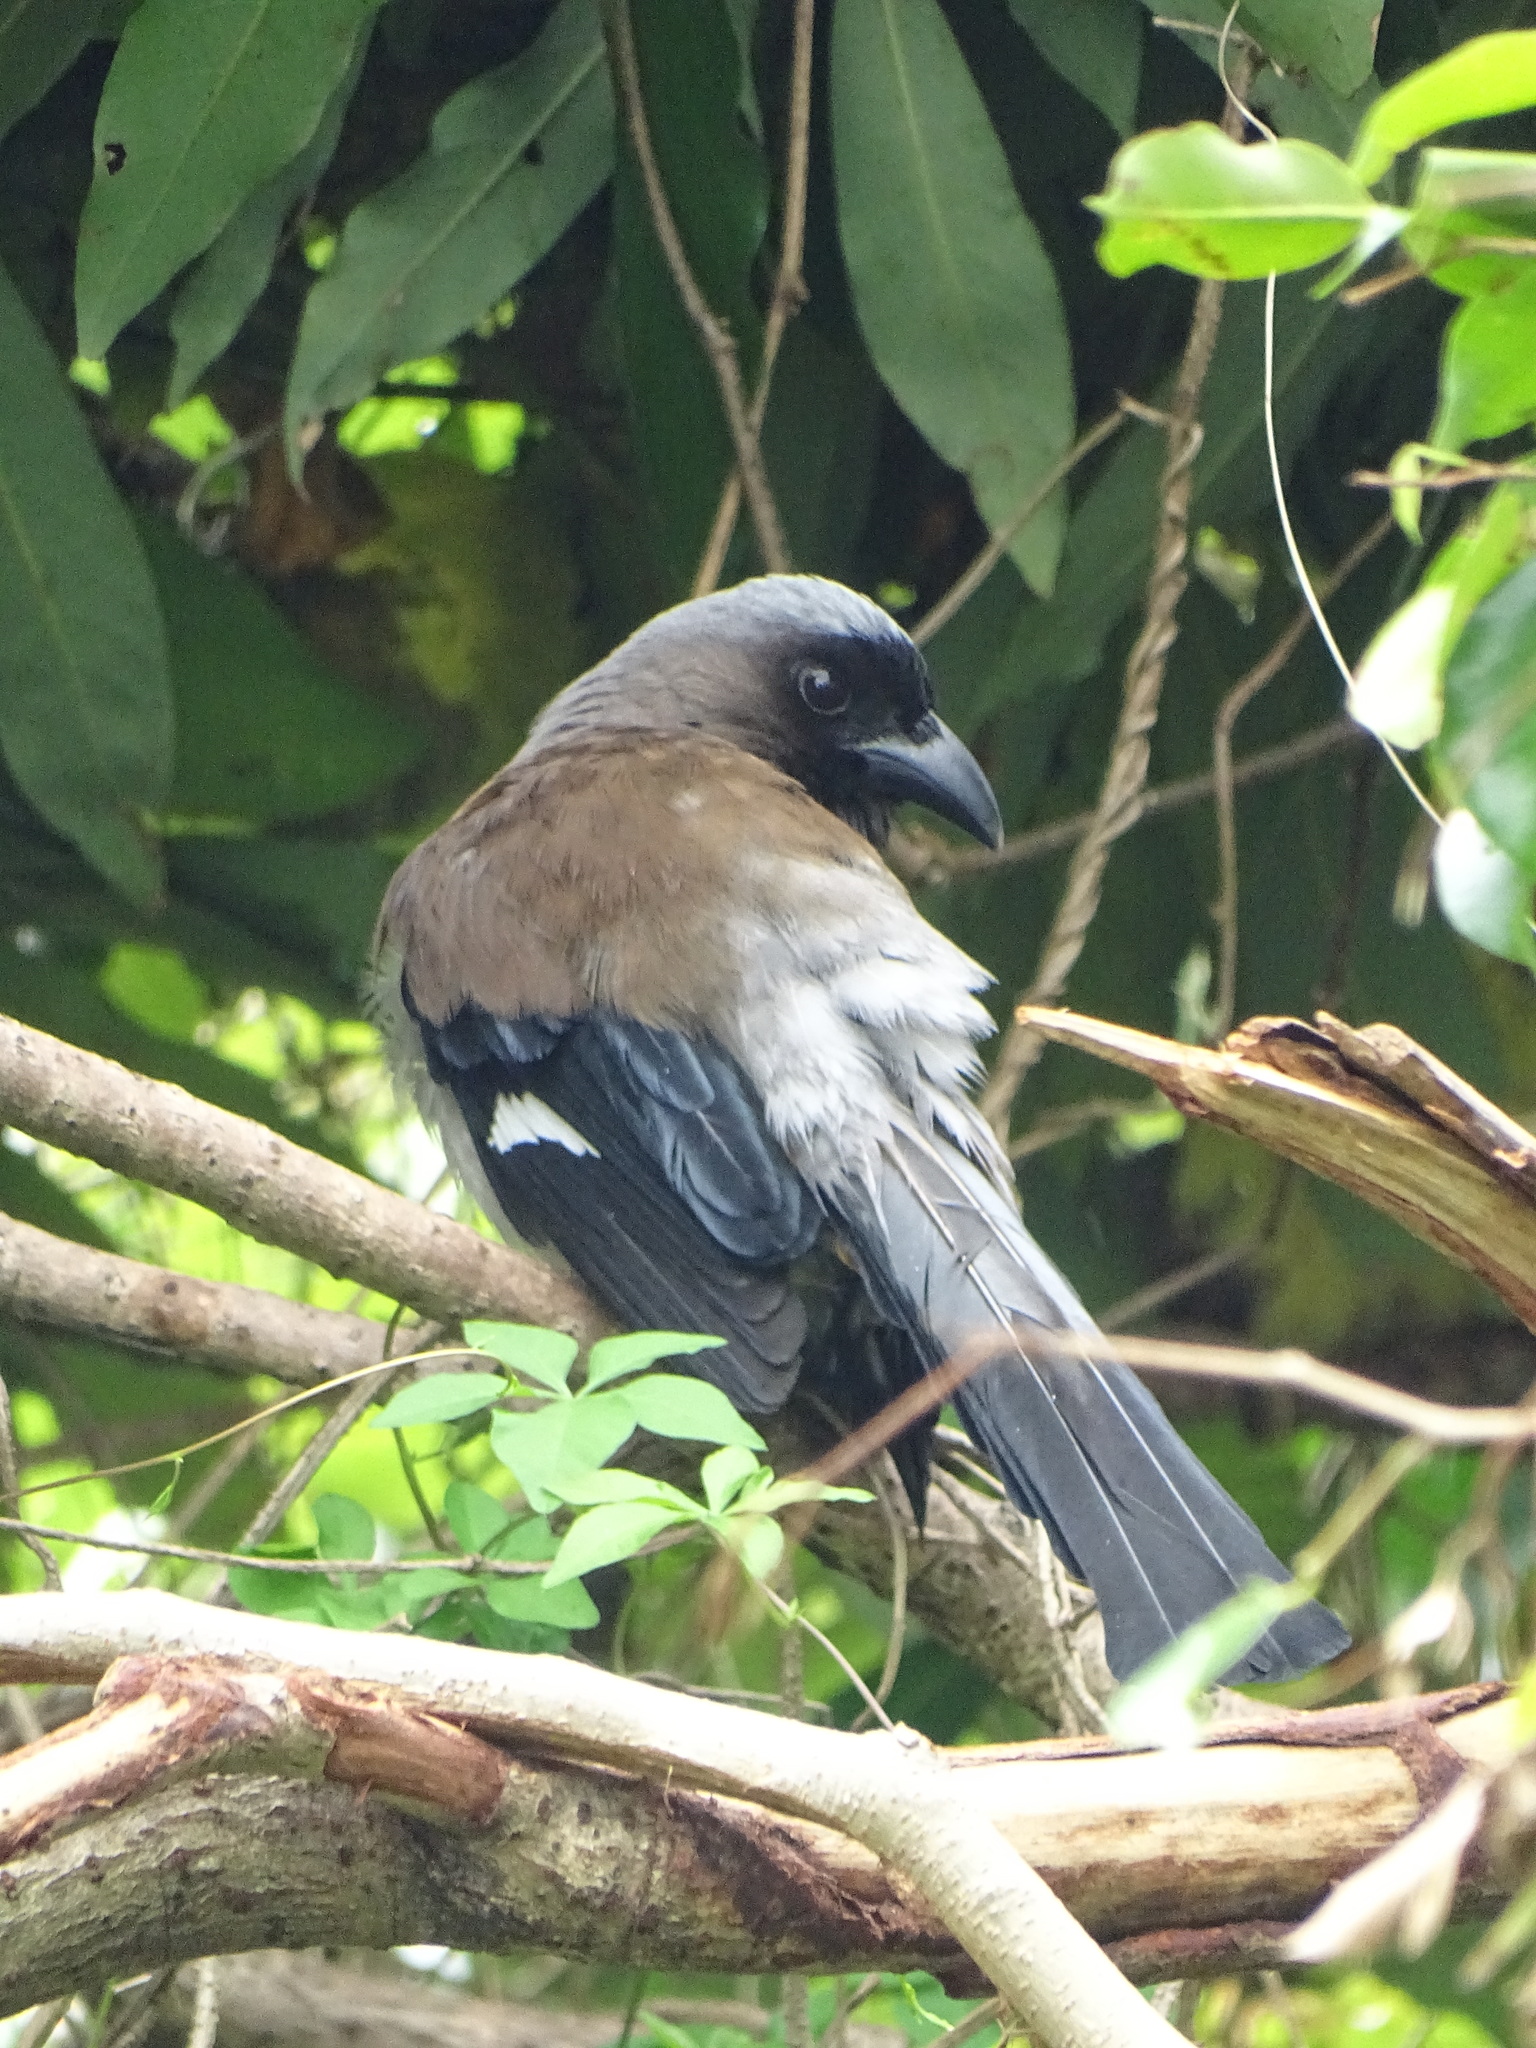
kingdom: Animalia
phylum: Chordata
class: Aves
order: Passeriformes
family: Corvidae
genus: Dendrocitta
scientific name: Dendrocitta formosae
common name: Grey treepie
